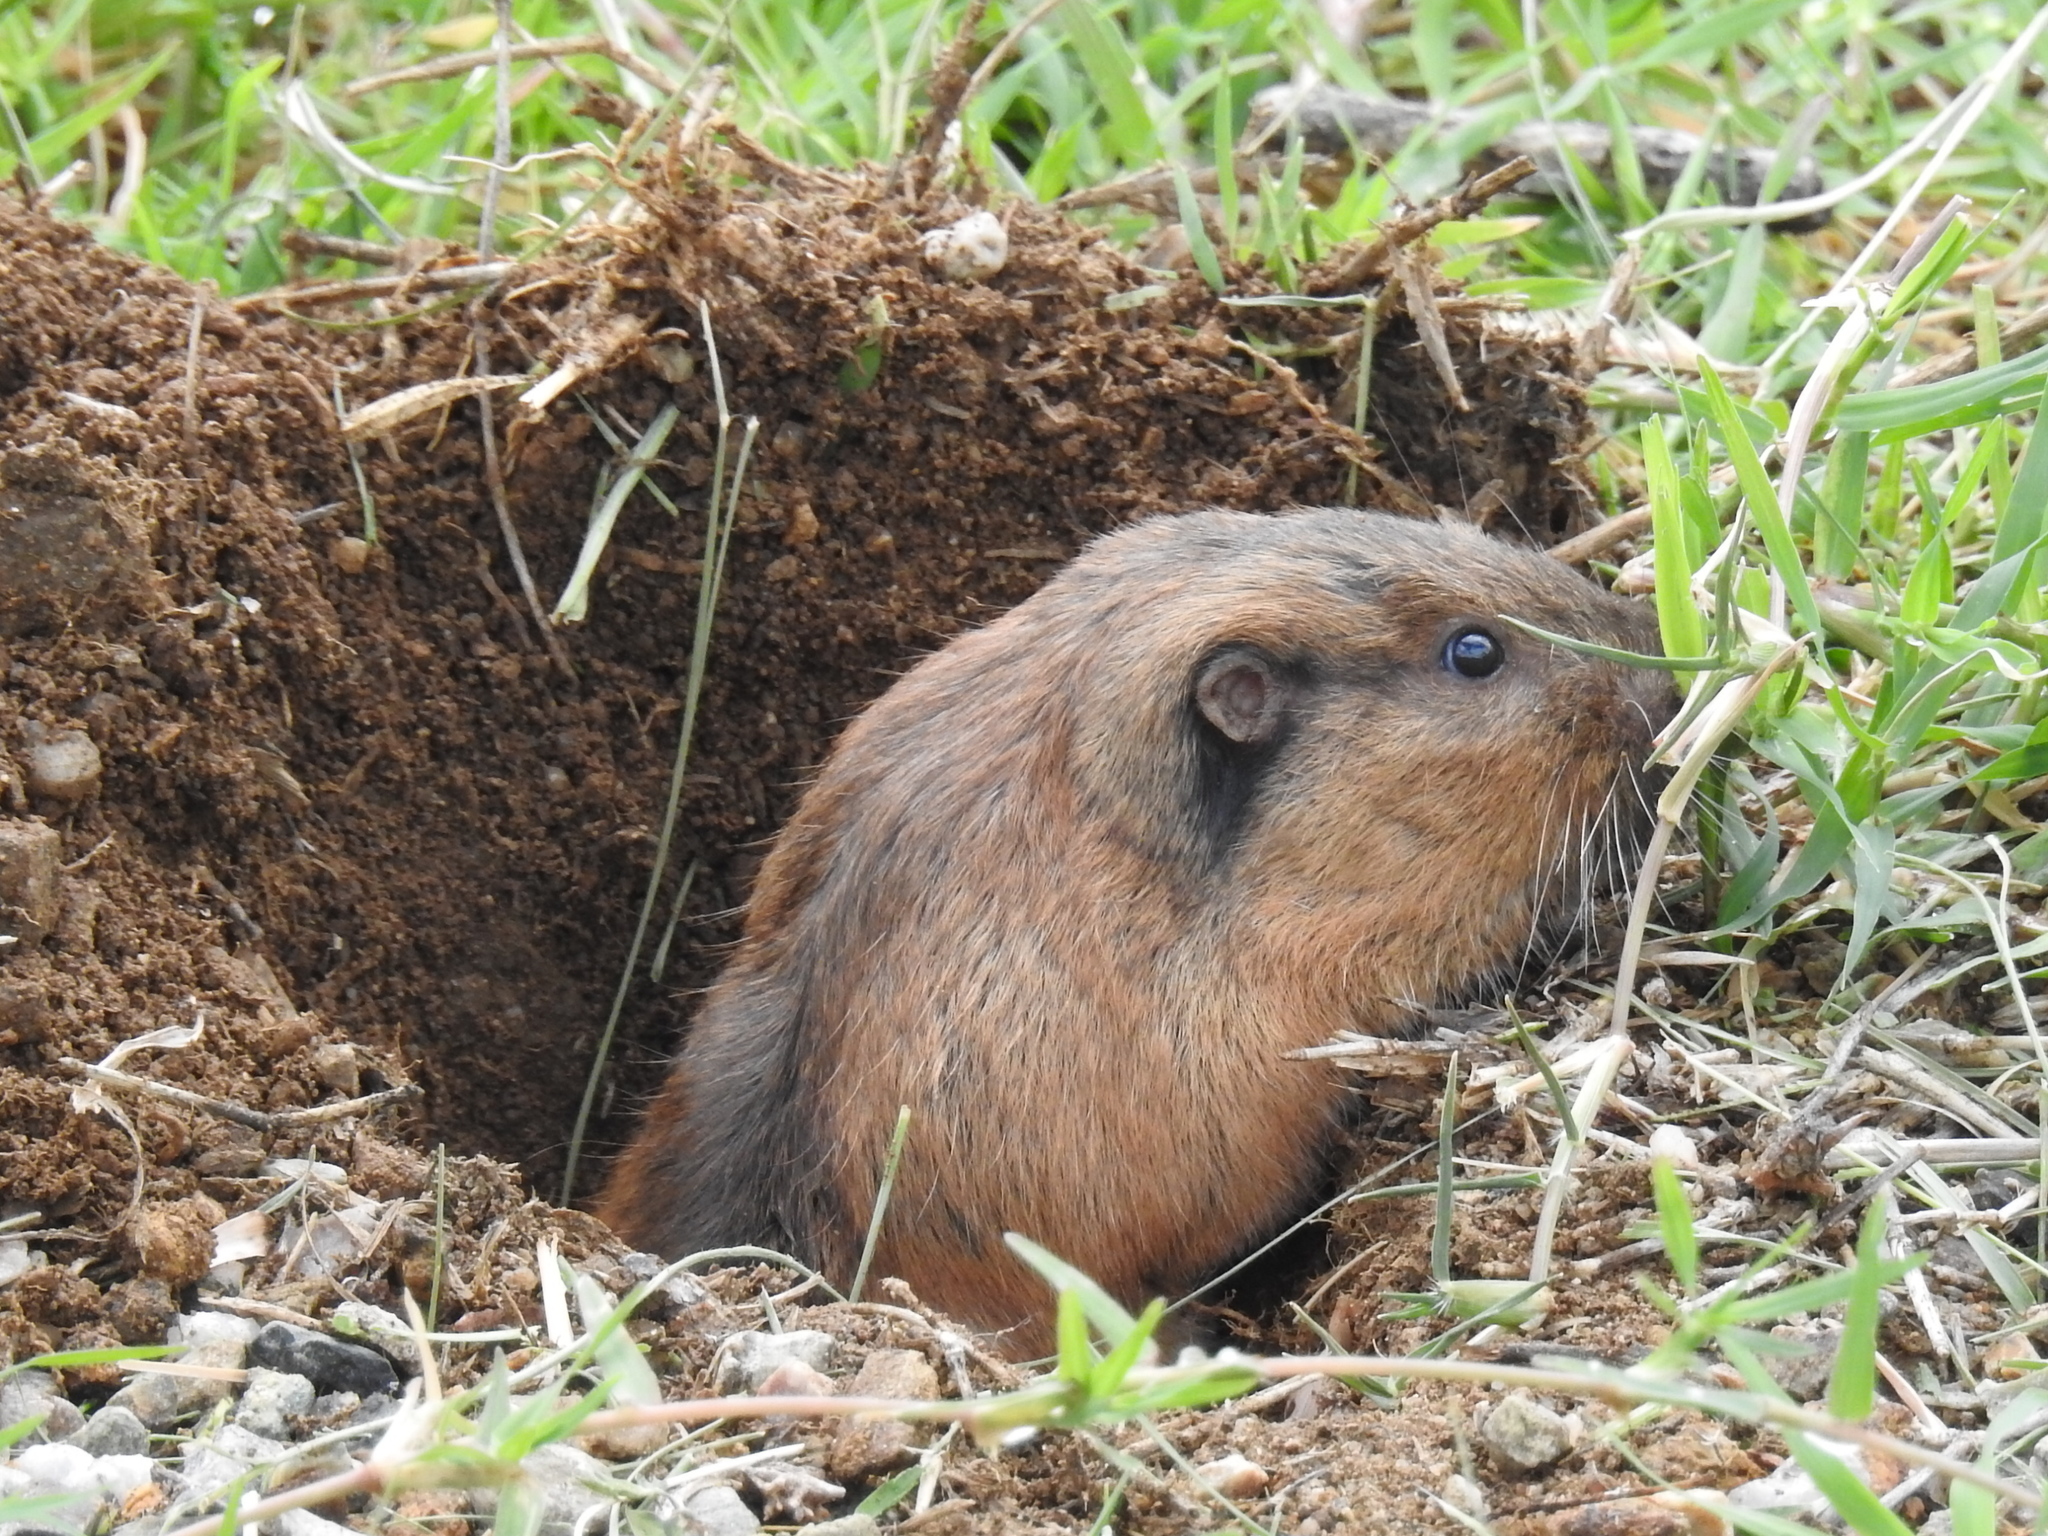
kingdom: Animalia
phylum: Chordata
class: Mammalia
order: Rodentia
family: Geomyidae
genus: Thomomys
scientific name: Thomomys bottae
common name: Botta's pocket gopher
